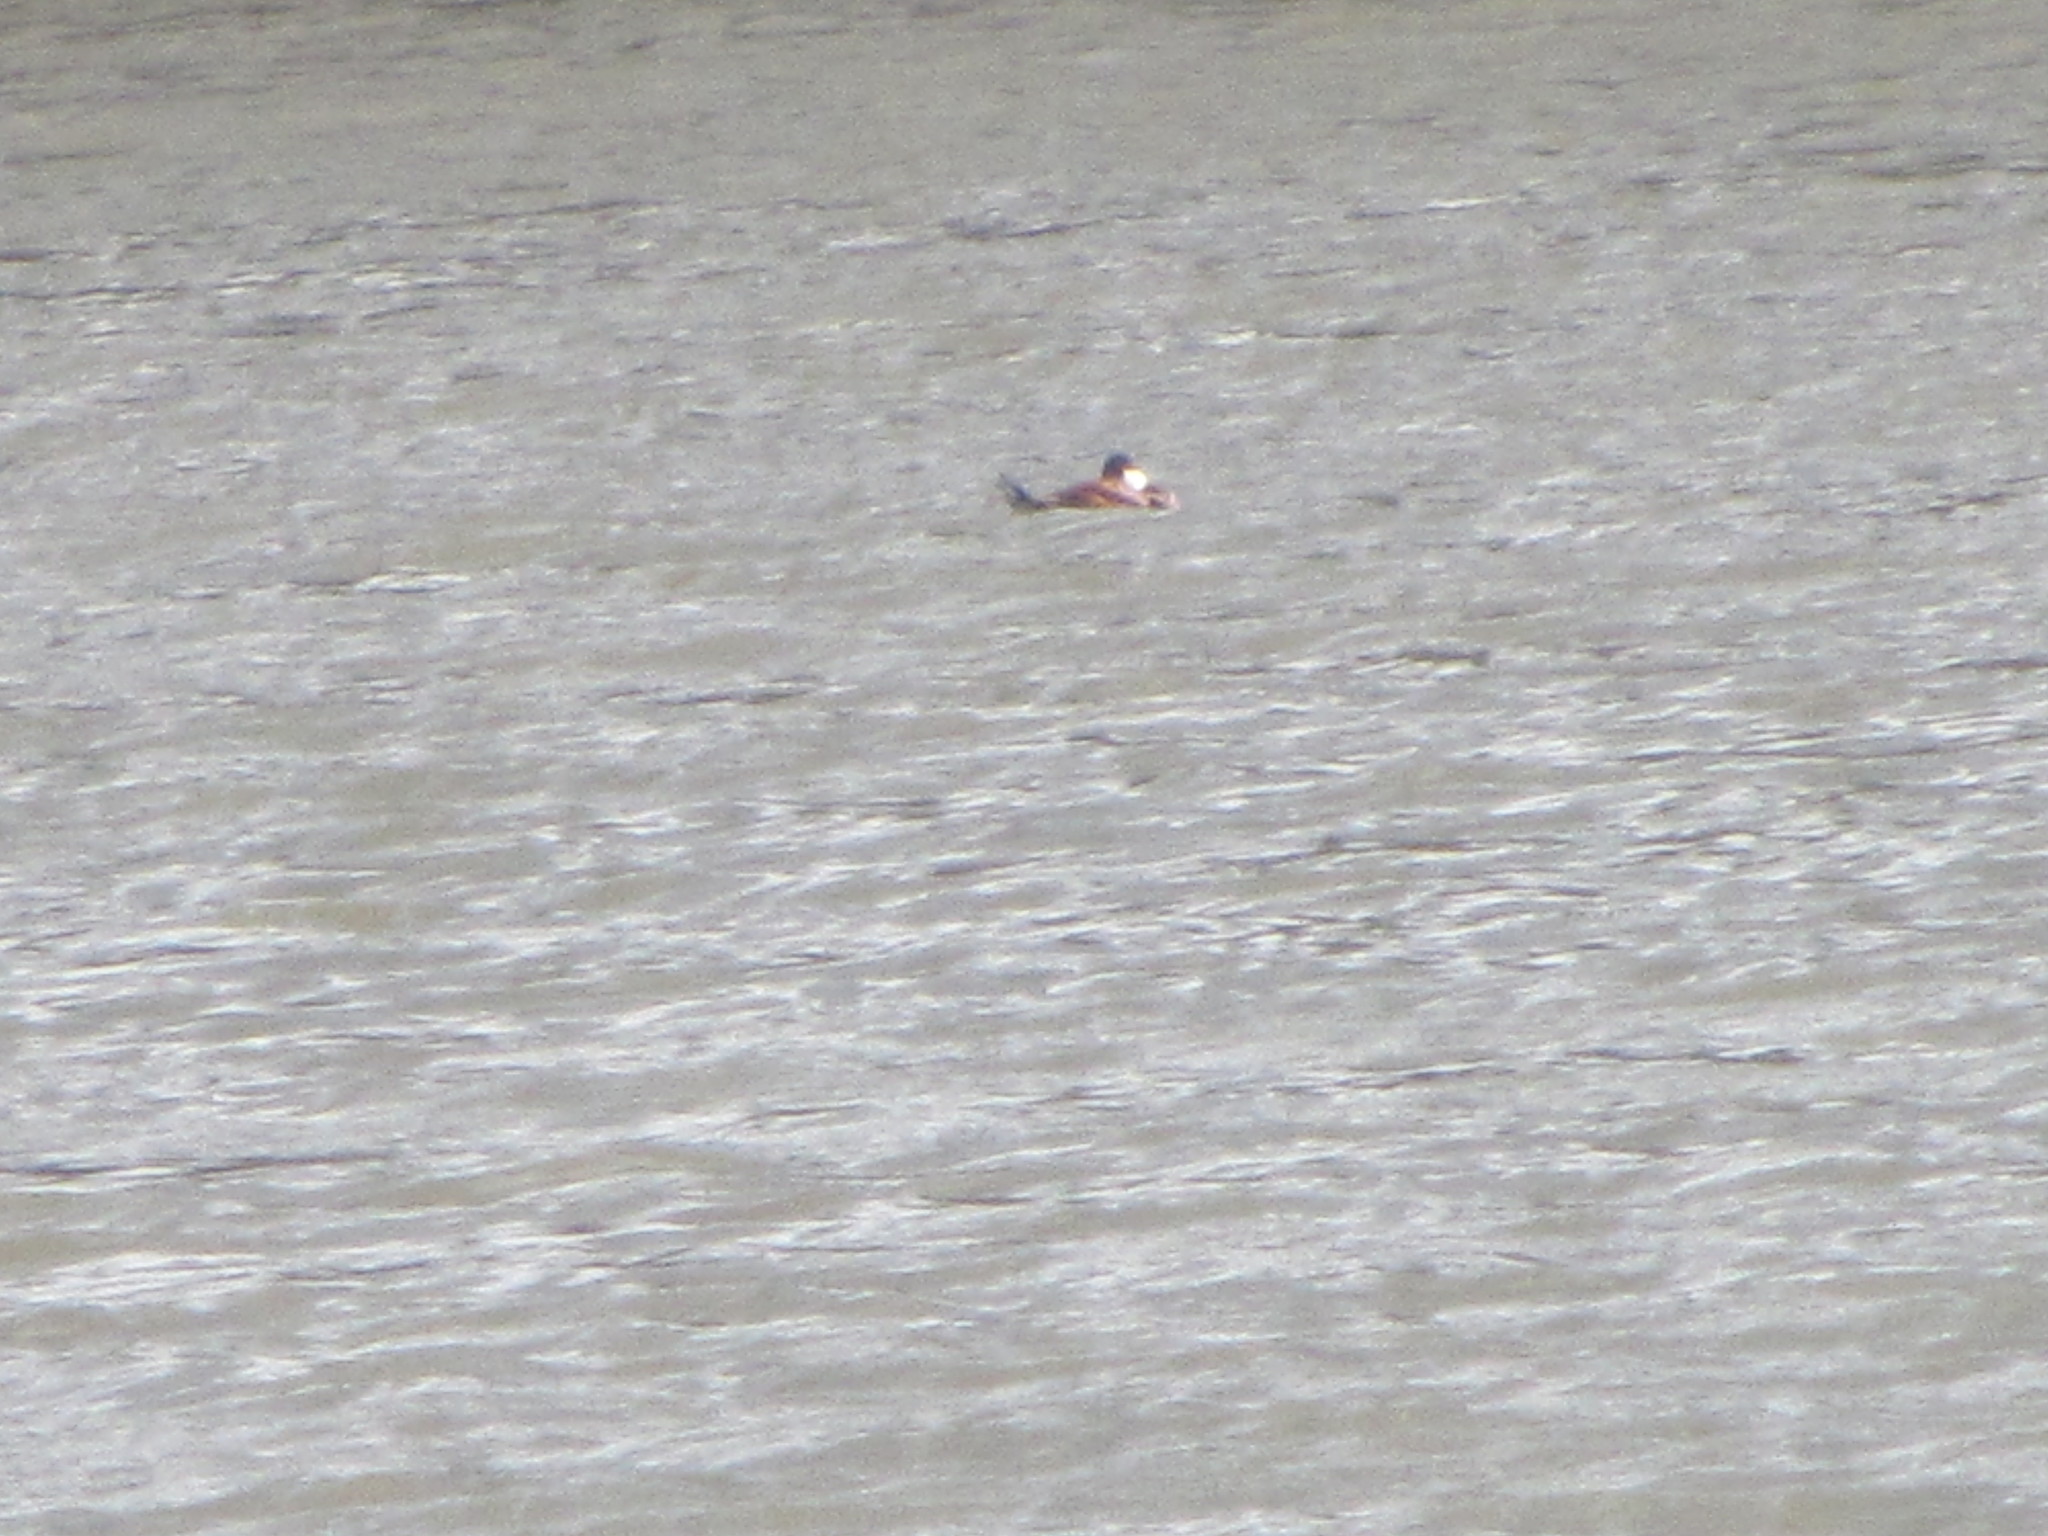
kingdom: Animalia
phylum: Chordata
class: Aves
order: Anseriformes
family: Anatidae
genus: Oxyura
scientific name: Oxyura jamaicensis
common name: Ruddy duck
